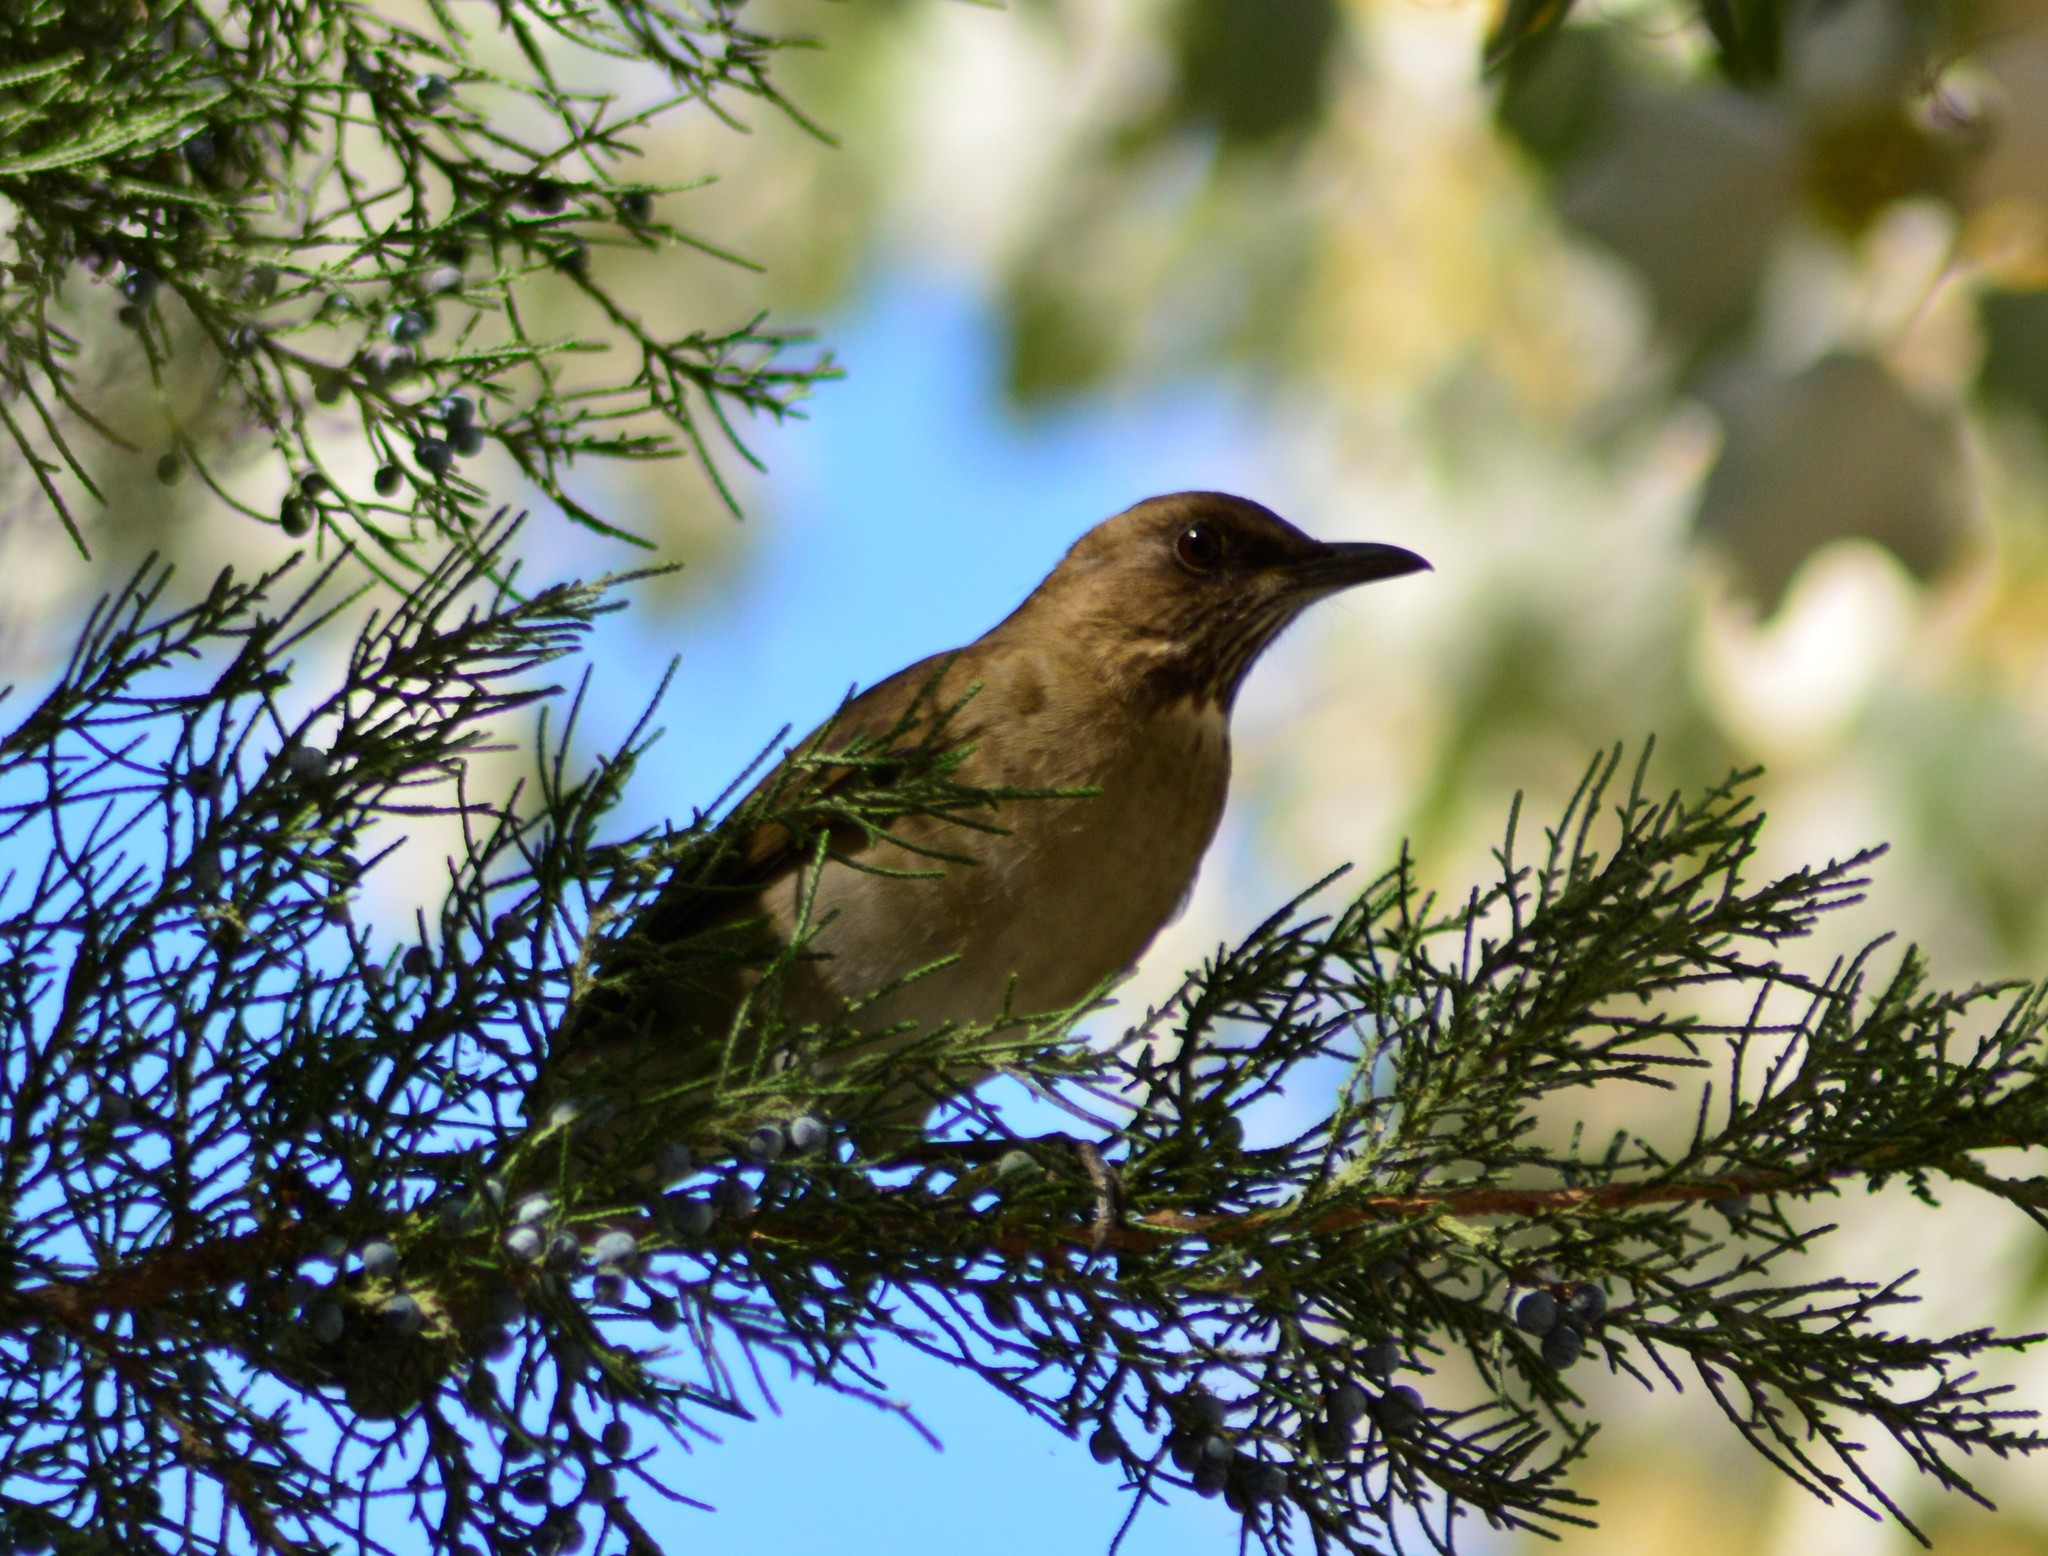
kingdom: Animalia
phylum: Chordata
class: Aves
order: Passeriformes
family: Turdidae
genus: Turdus
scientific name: Turdus amaurochalinus
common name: Creamy-bellied thrush
